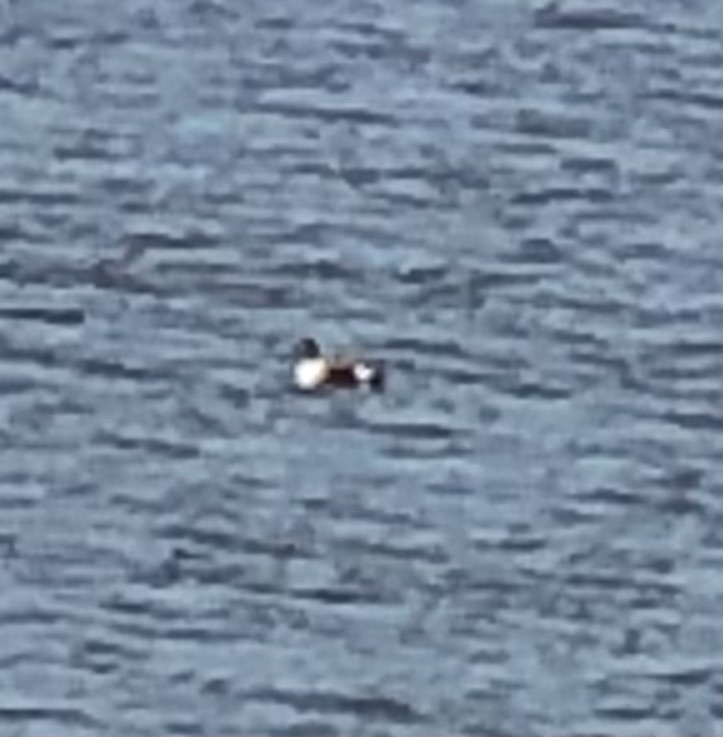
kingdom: Animalia
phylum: Chordata
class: Aves
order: Anseriformes
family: Anatidae
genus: Spatula
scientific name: Spatula clypeata
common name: Northern shoveler
